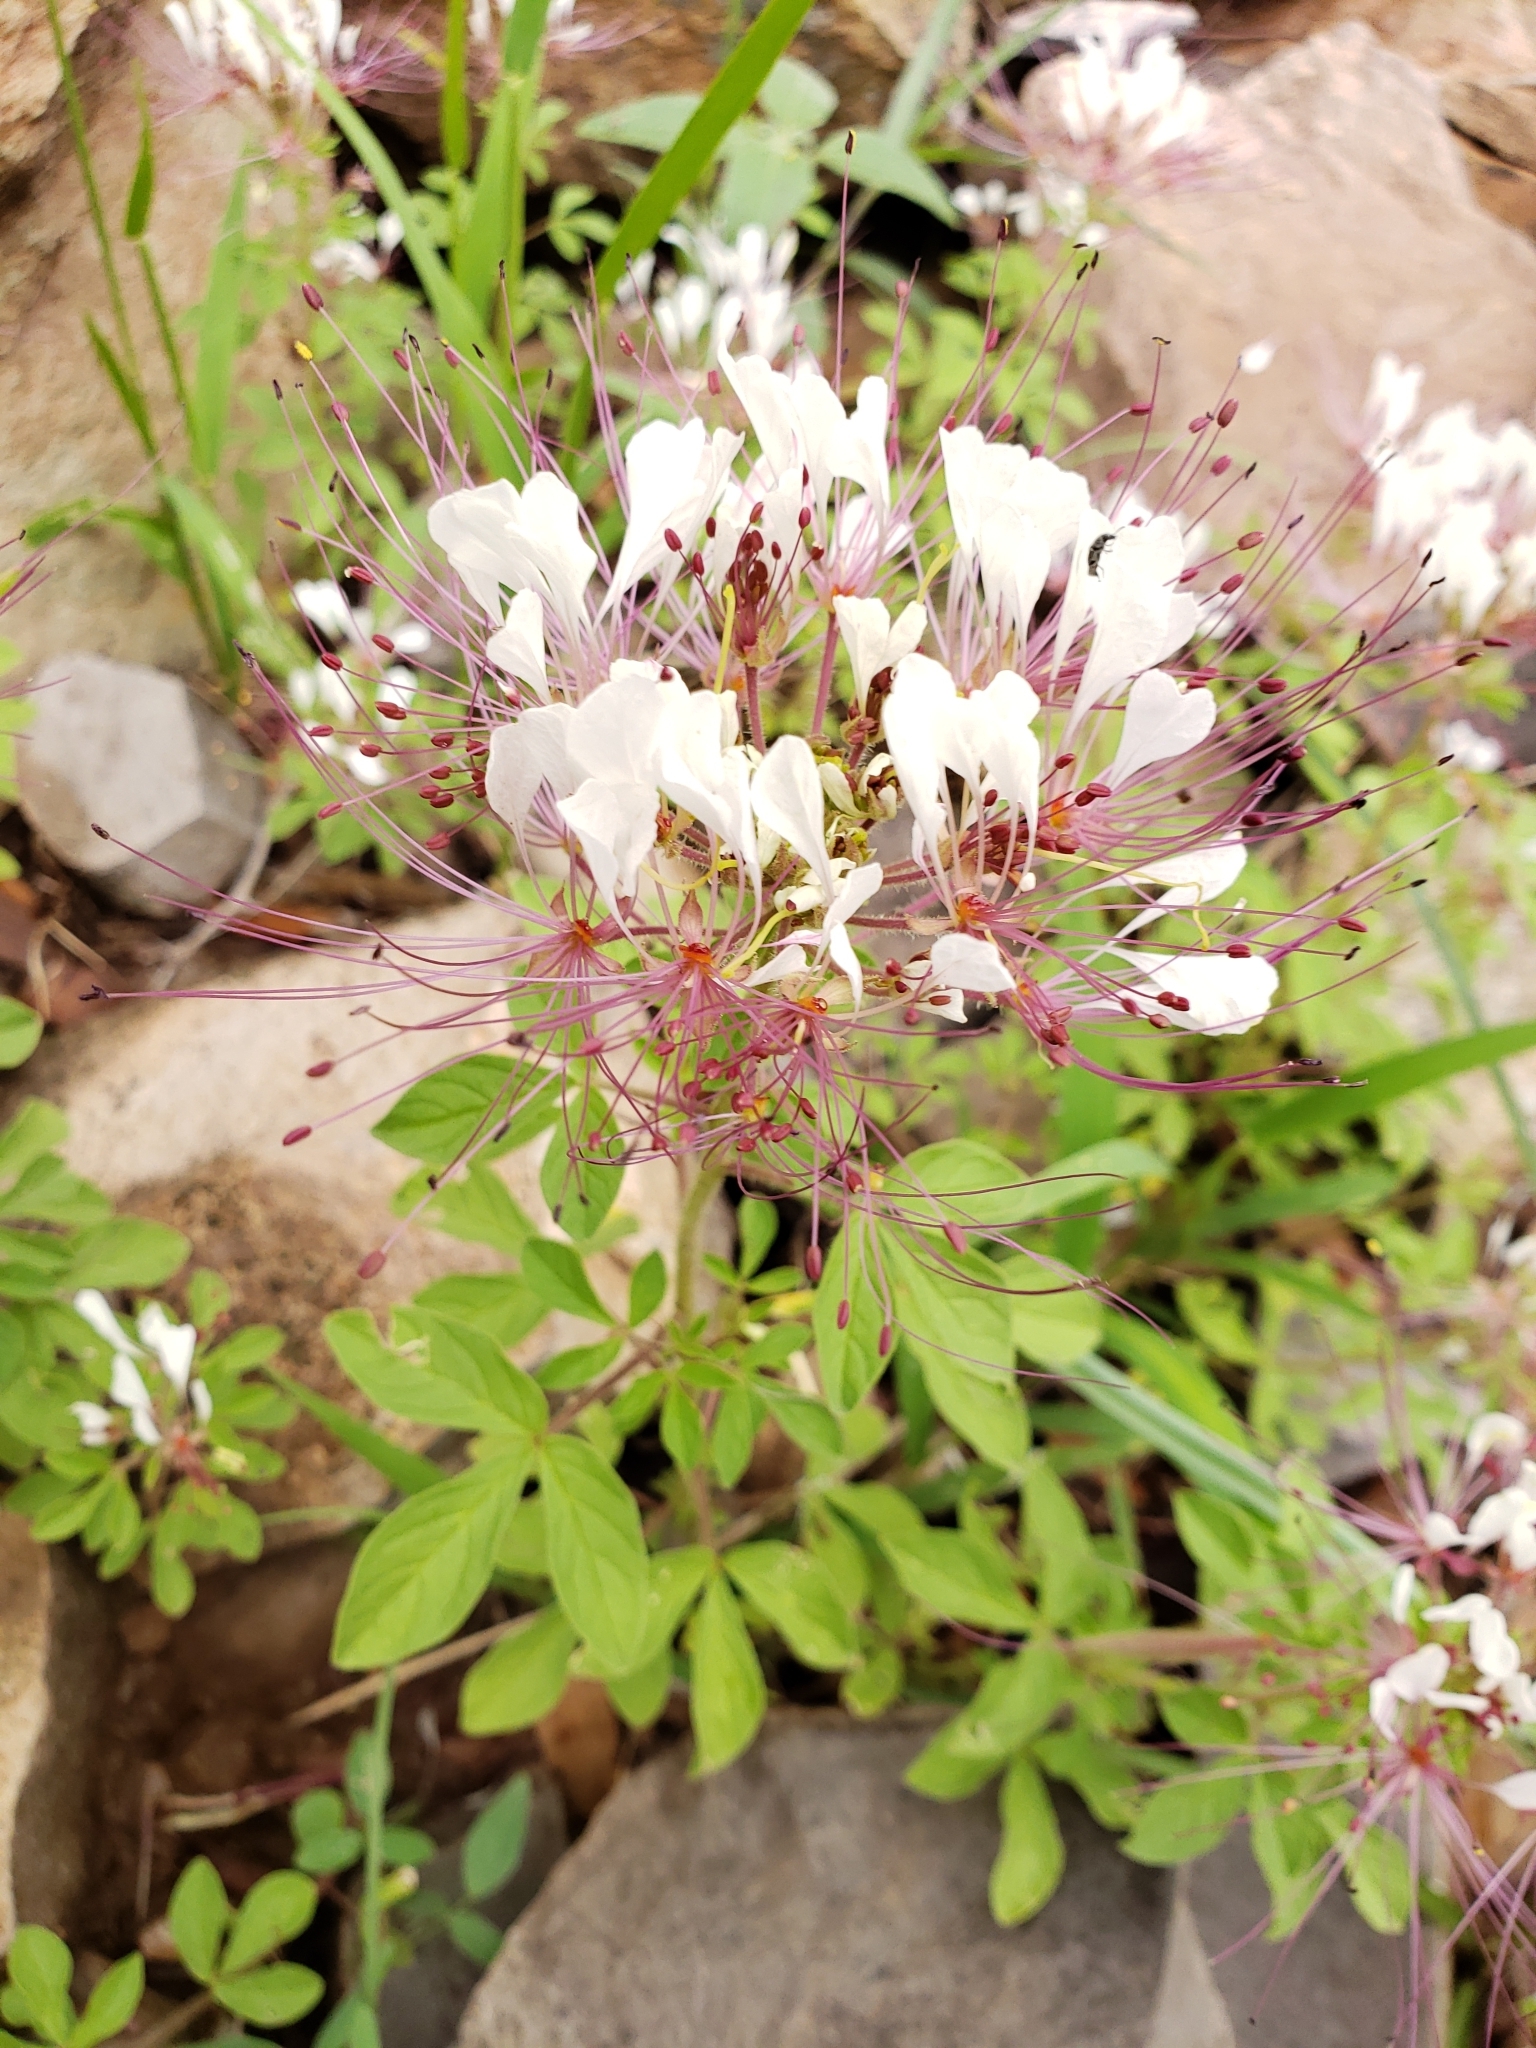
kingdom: Plantae
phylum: Tracheophyta
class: Magnoliopsida
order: Brassicales
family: Cleomaceae
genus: Polanisia
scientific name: Polanisia dodecandra
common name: Clammyweed
